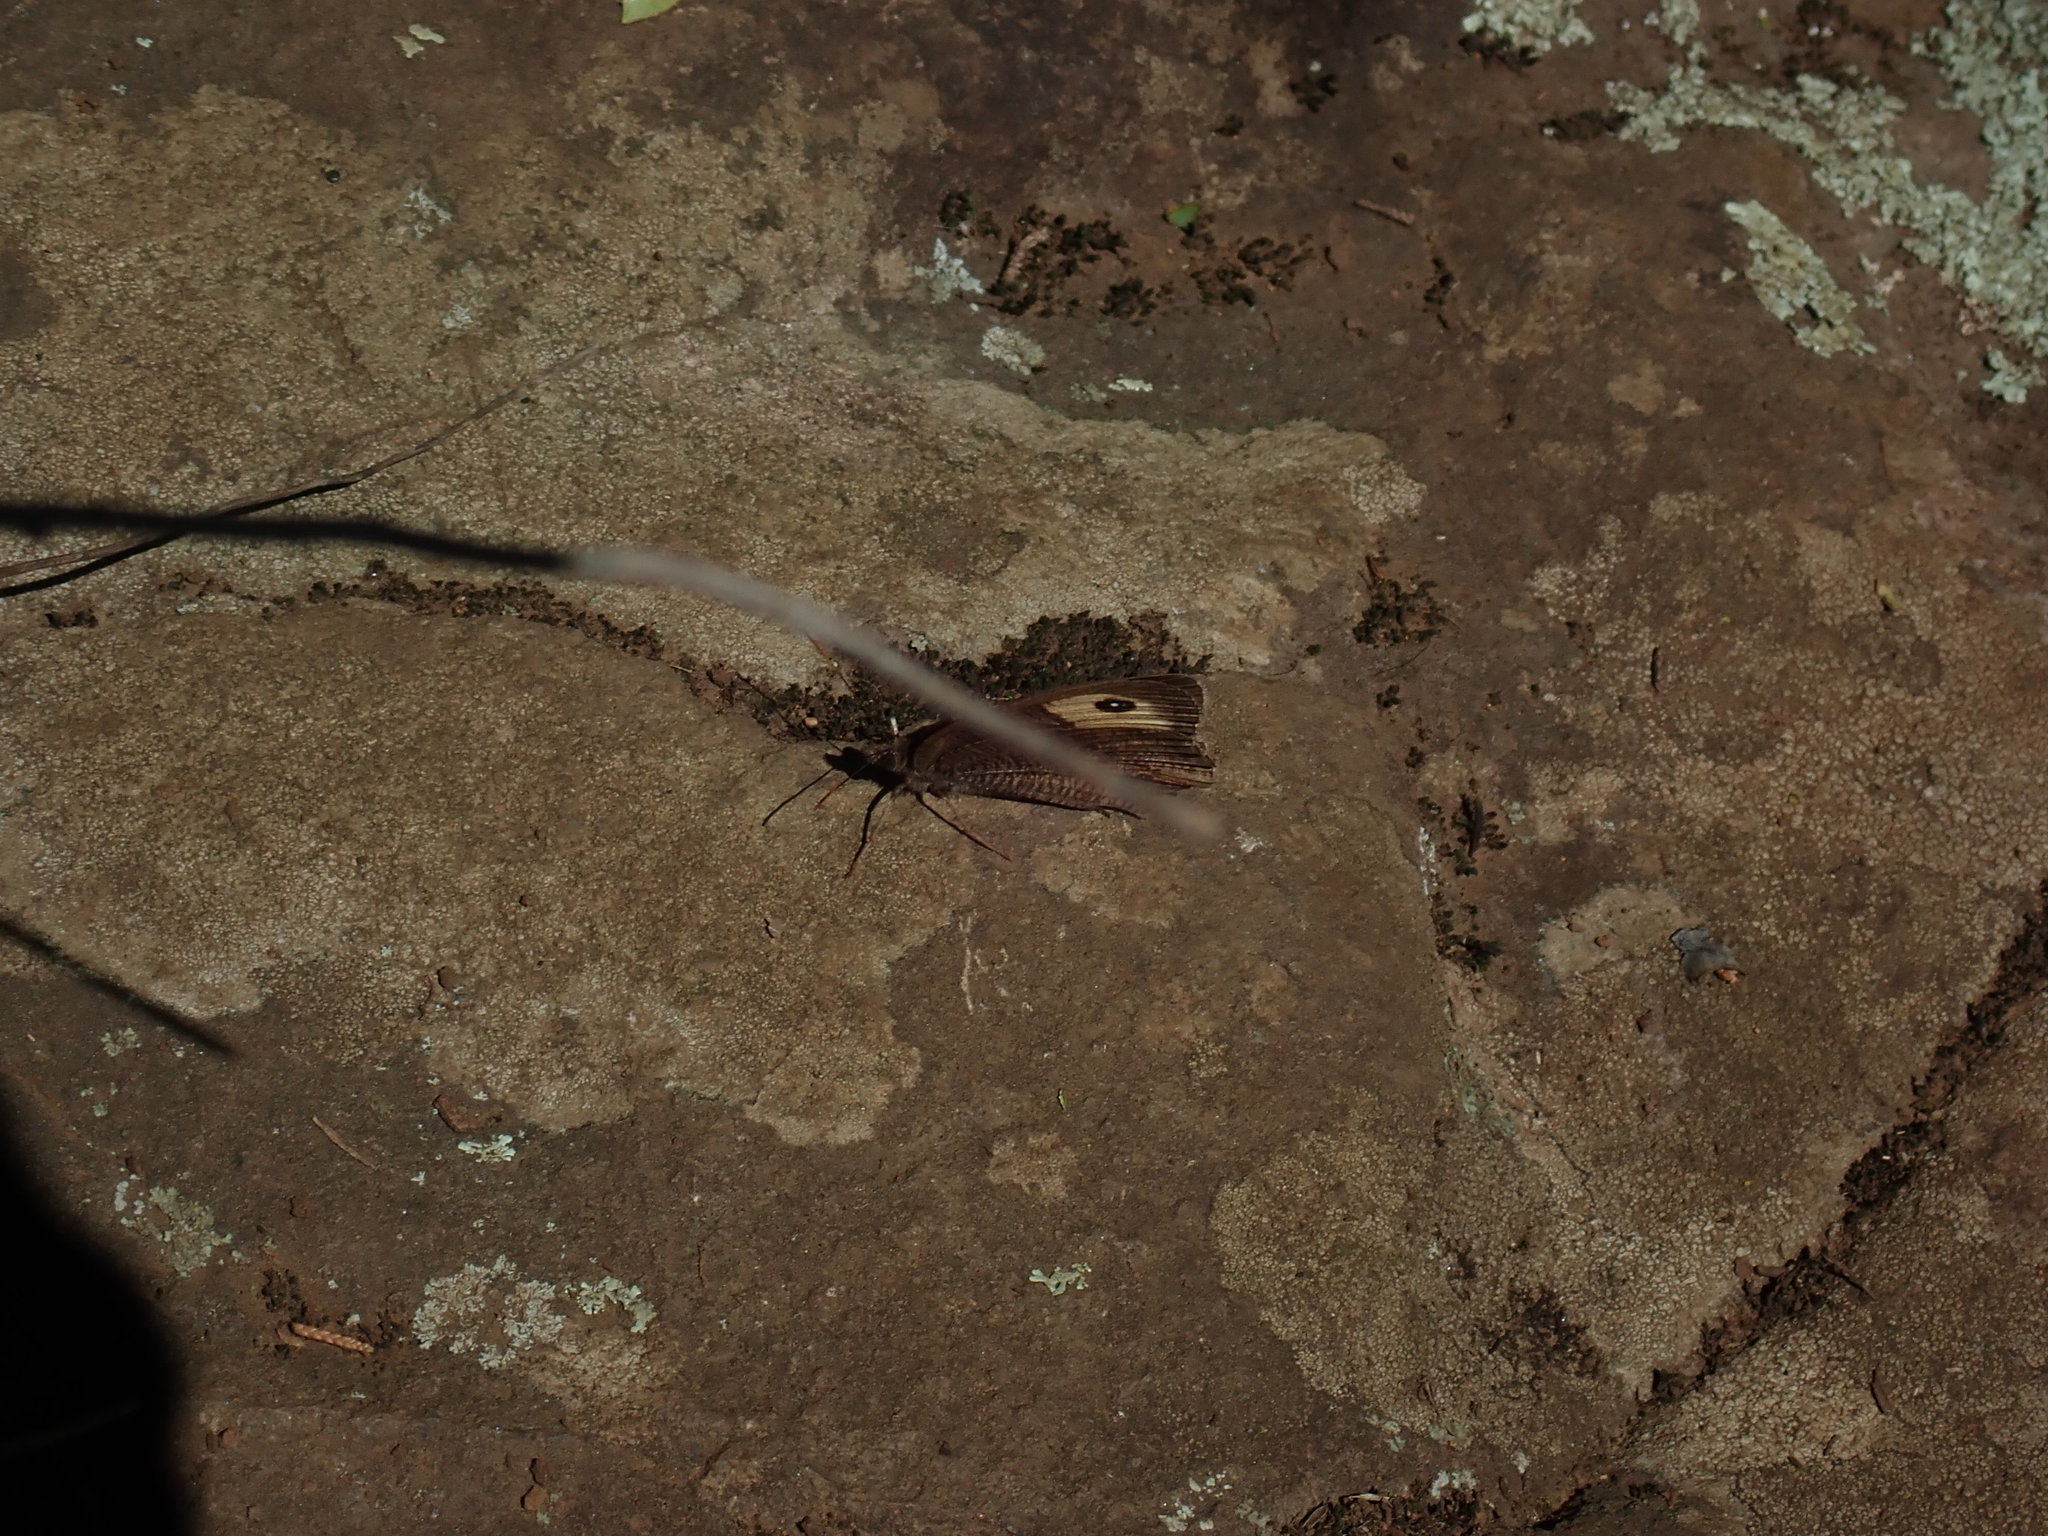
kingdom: Animalia
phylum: Arthropoda
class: Insecta
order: Lepidoptera
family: Nymphalidae
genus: Cercyonis
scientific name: Cercyonis pegala
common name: Common wood-nymph
